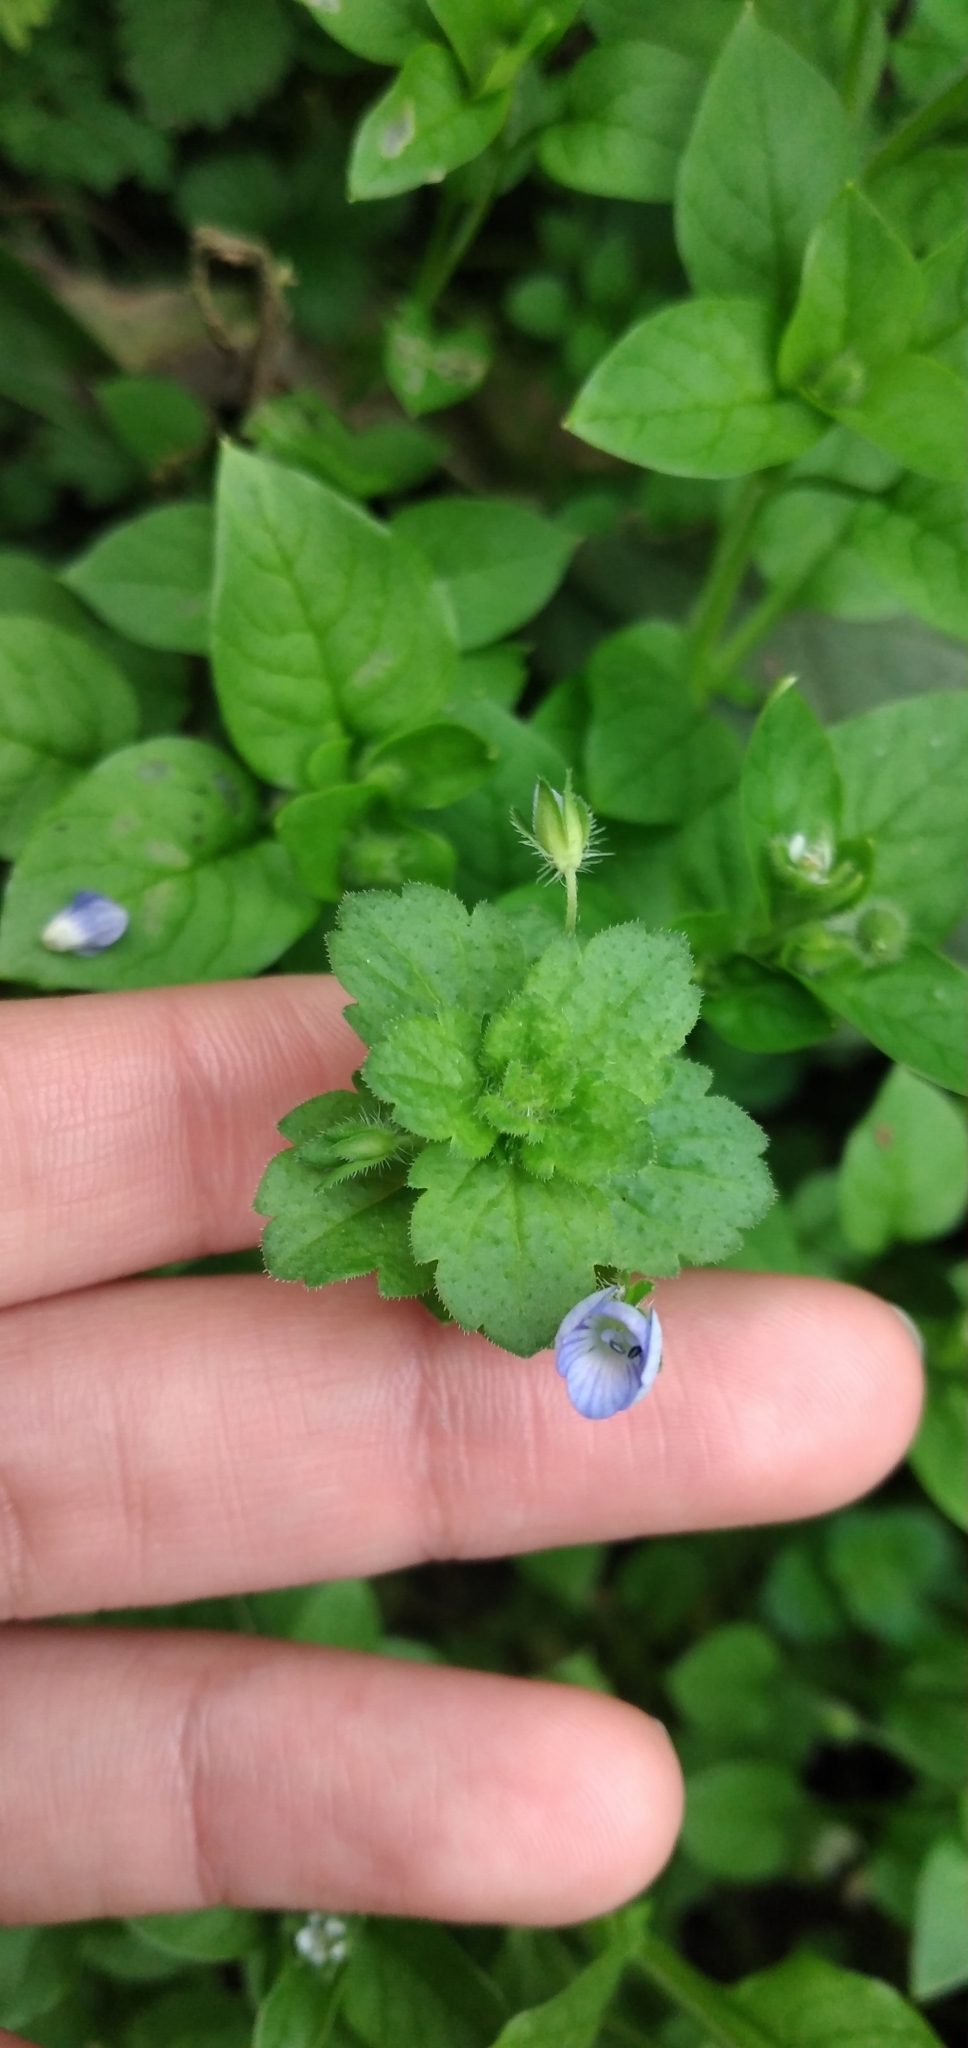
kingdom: Plantae
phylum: Tracheophyta
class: Magnoliopsida
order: Lamiales
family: Plantaginaceae
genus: Veronica
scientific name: Veronica persica
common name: Common field-speedwell
